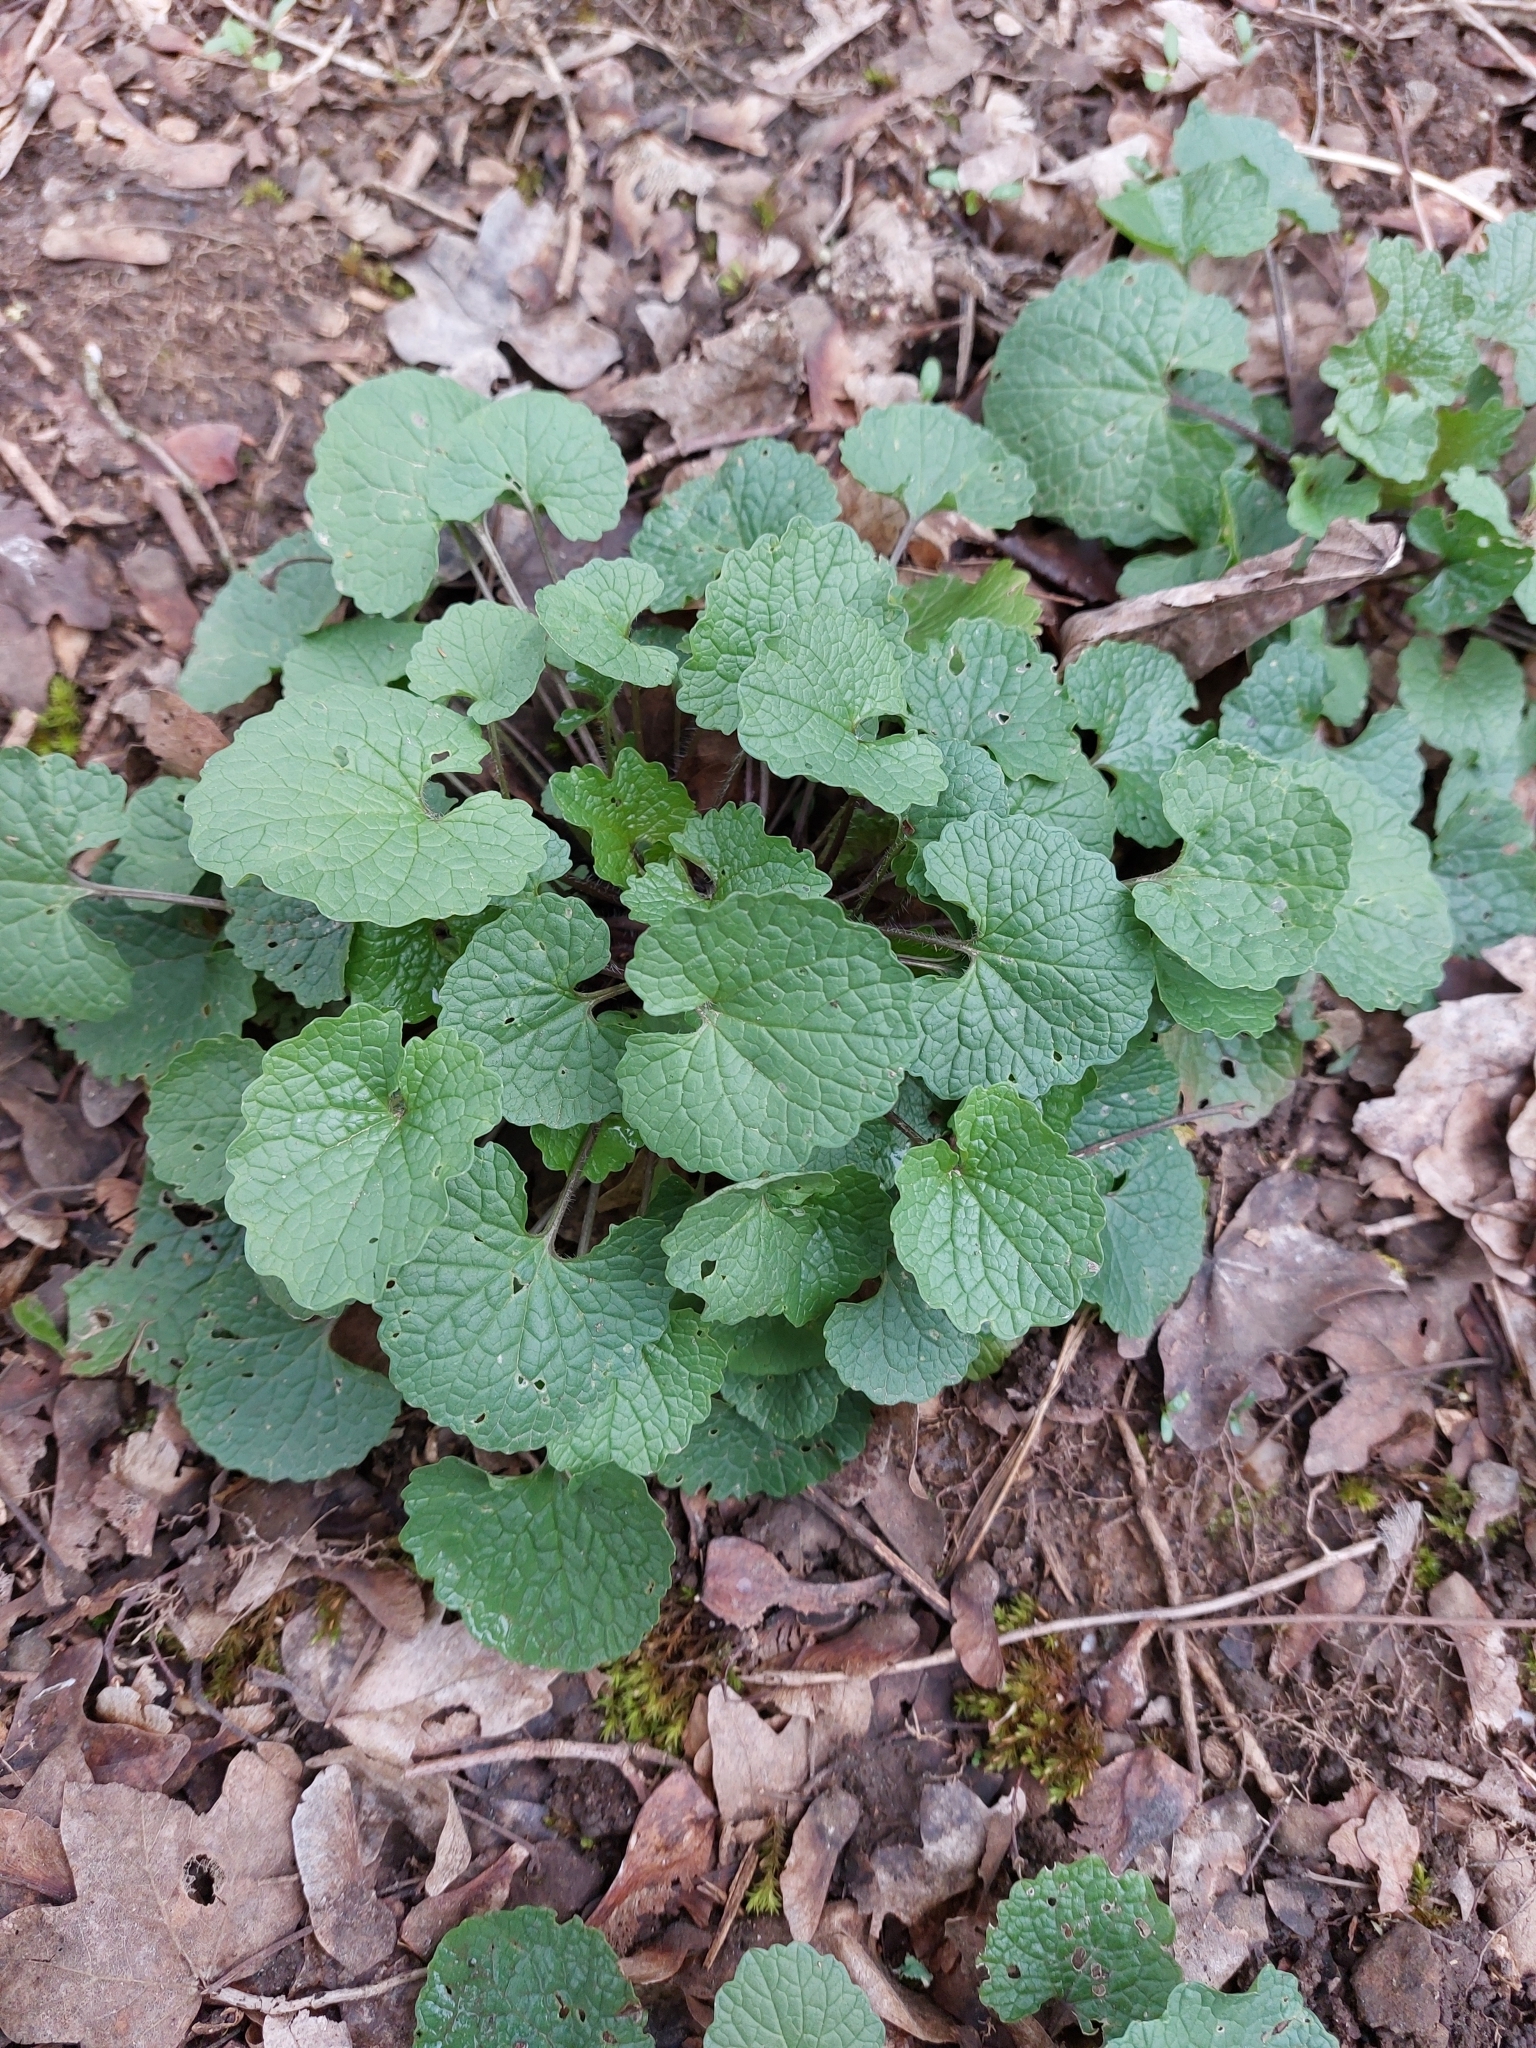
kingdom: Plantae
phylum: Tracheophyta
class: Magnoliopsida
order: Brassicales
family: Brassicaceae
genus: Alliaria
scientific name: Alliaria petiolata
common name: Garlic mustard
